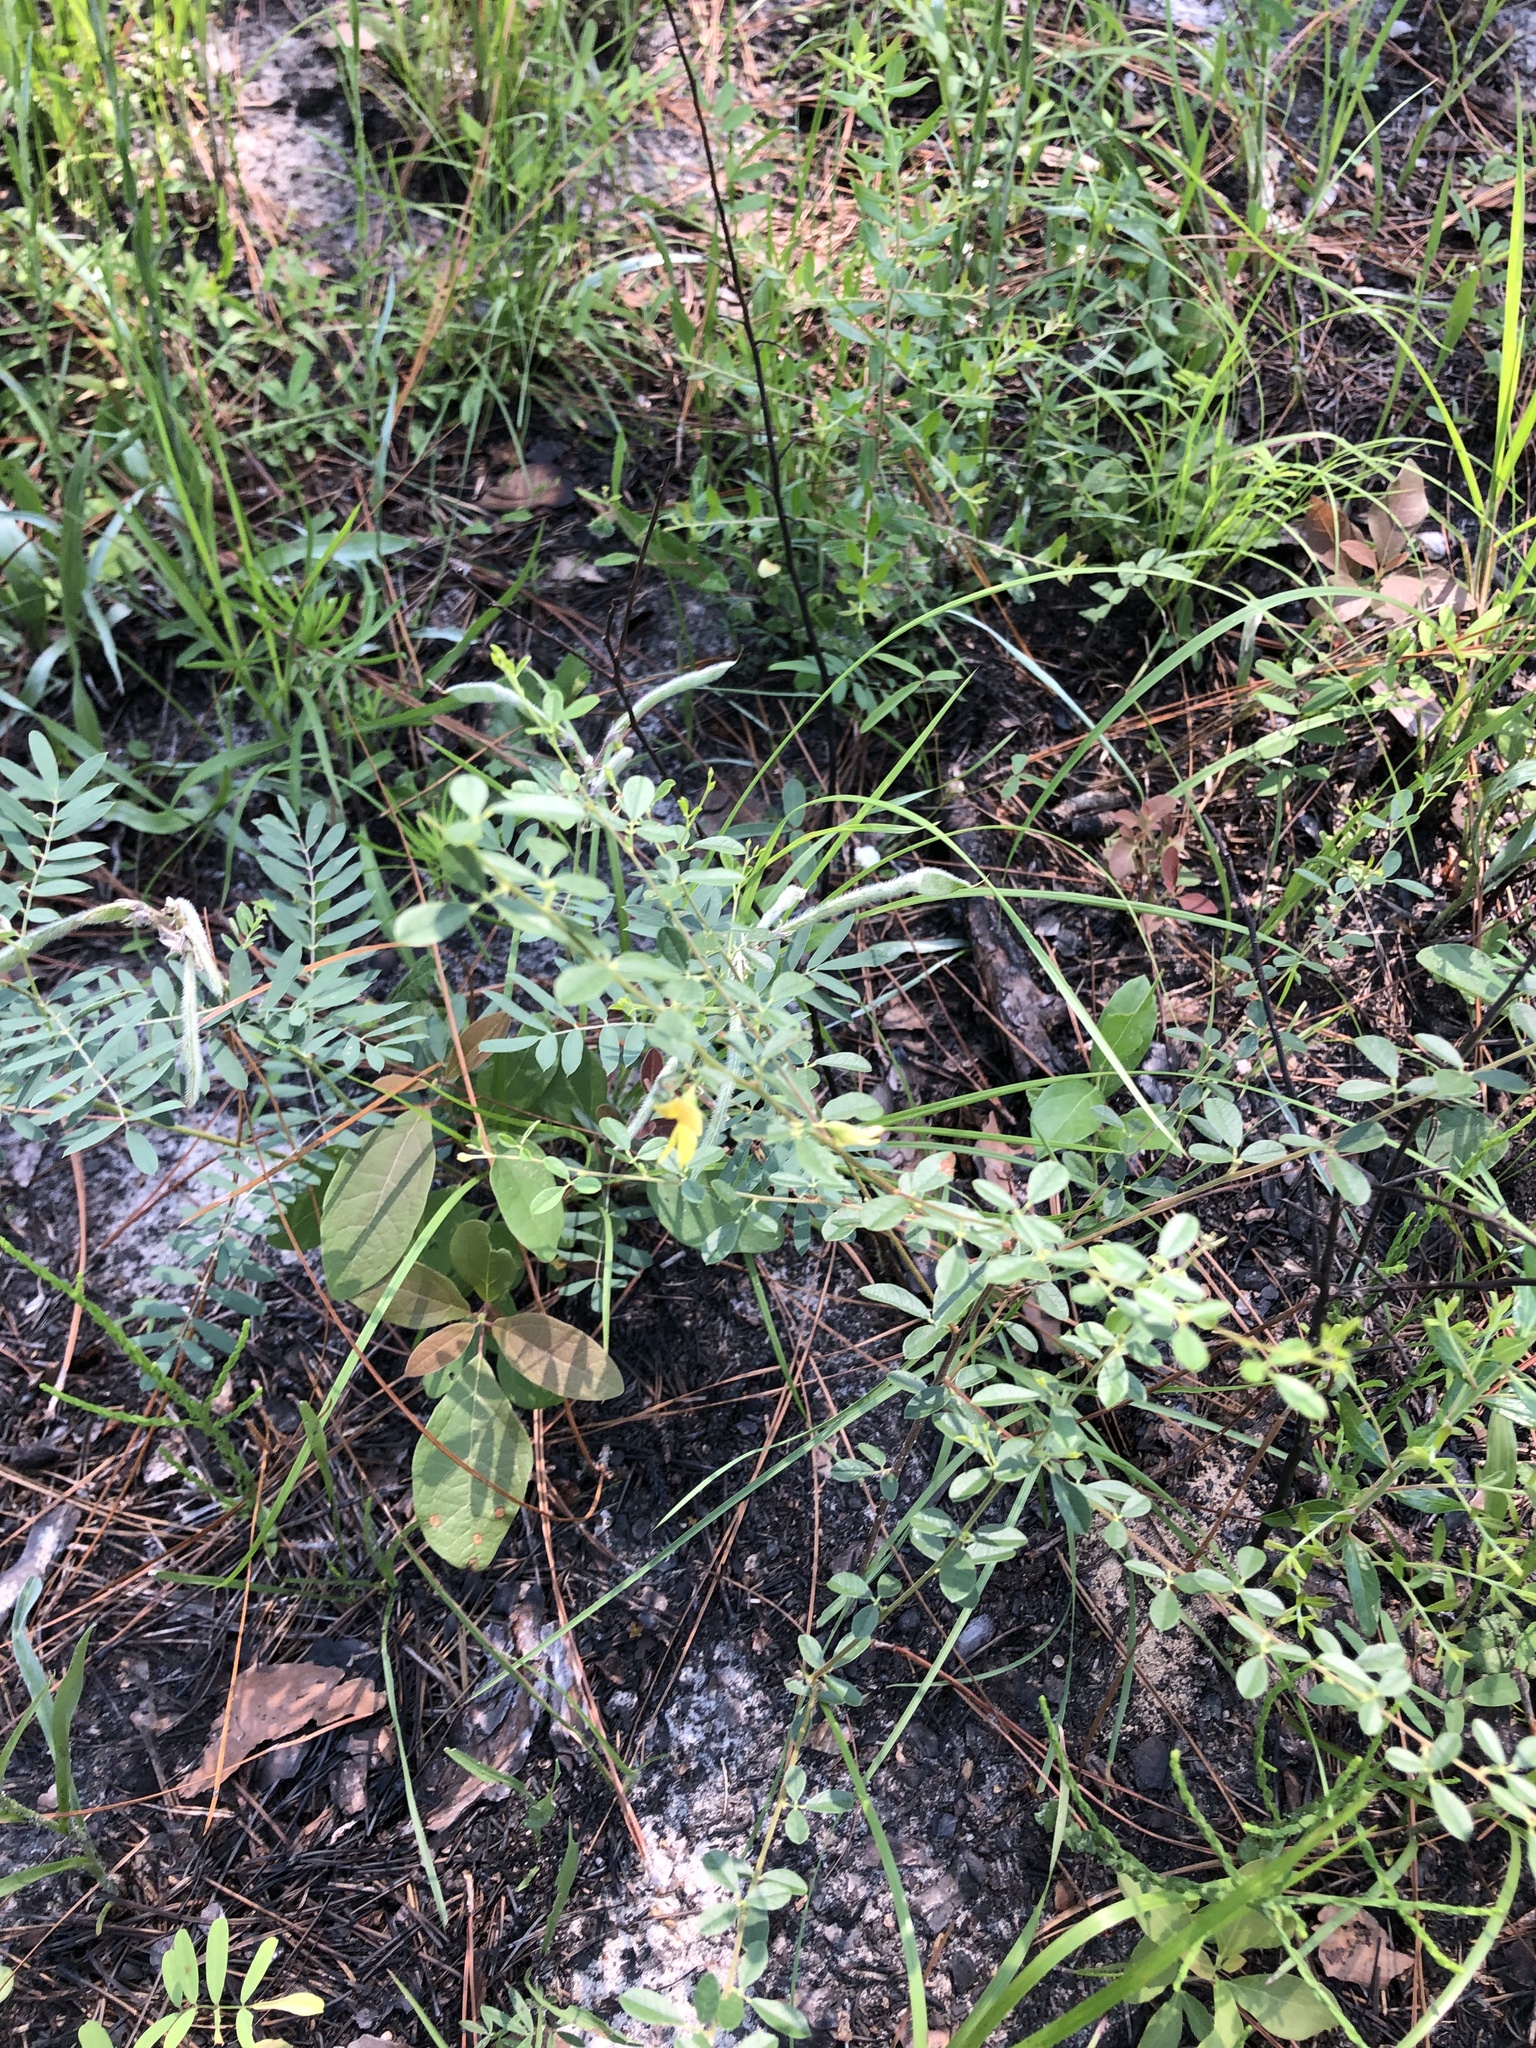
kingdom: Plantae
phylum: Tracheophyta
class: Magnoliopsida
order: Fabales
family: Fabaceae
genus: Rhynchosia
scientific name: Rhynchosia cytisoides
